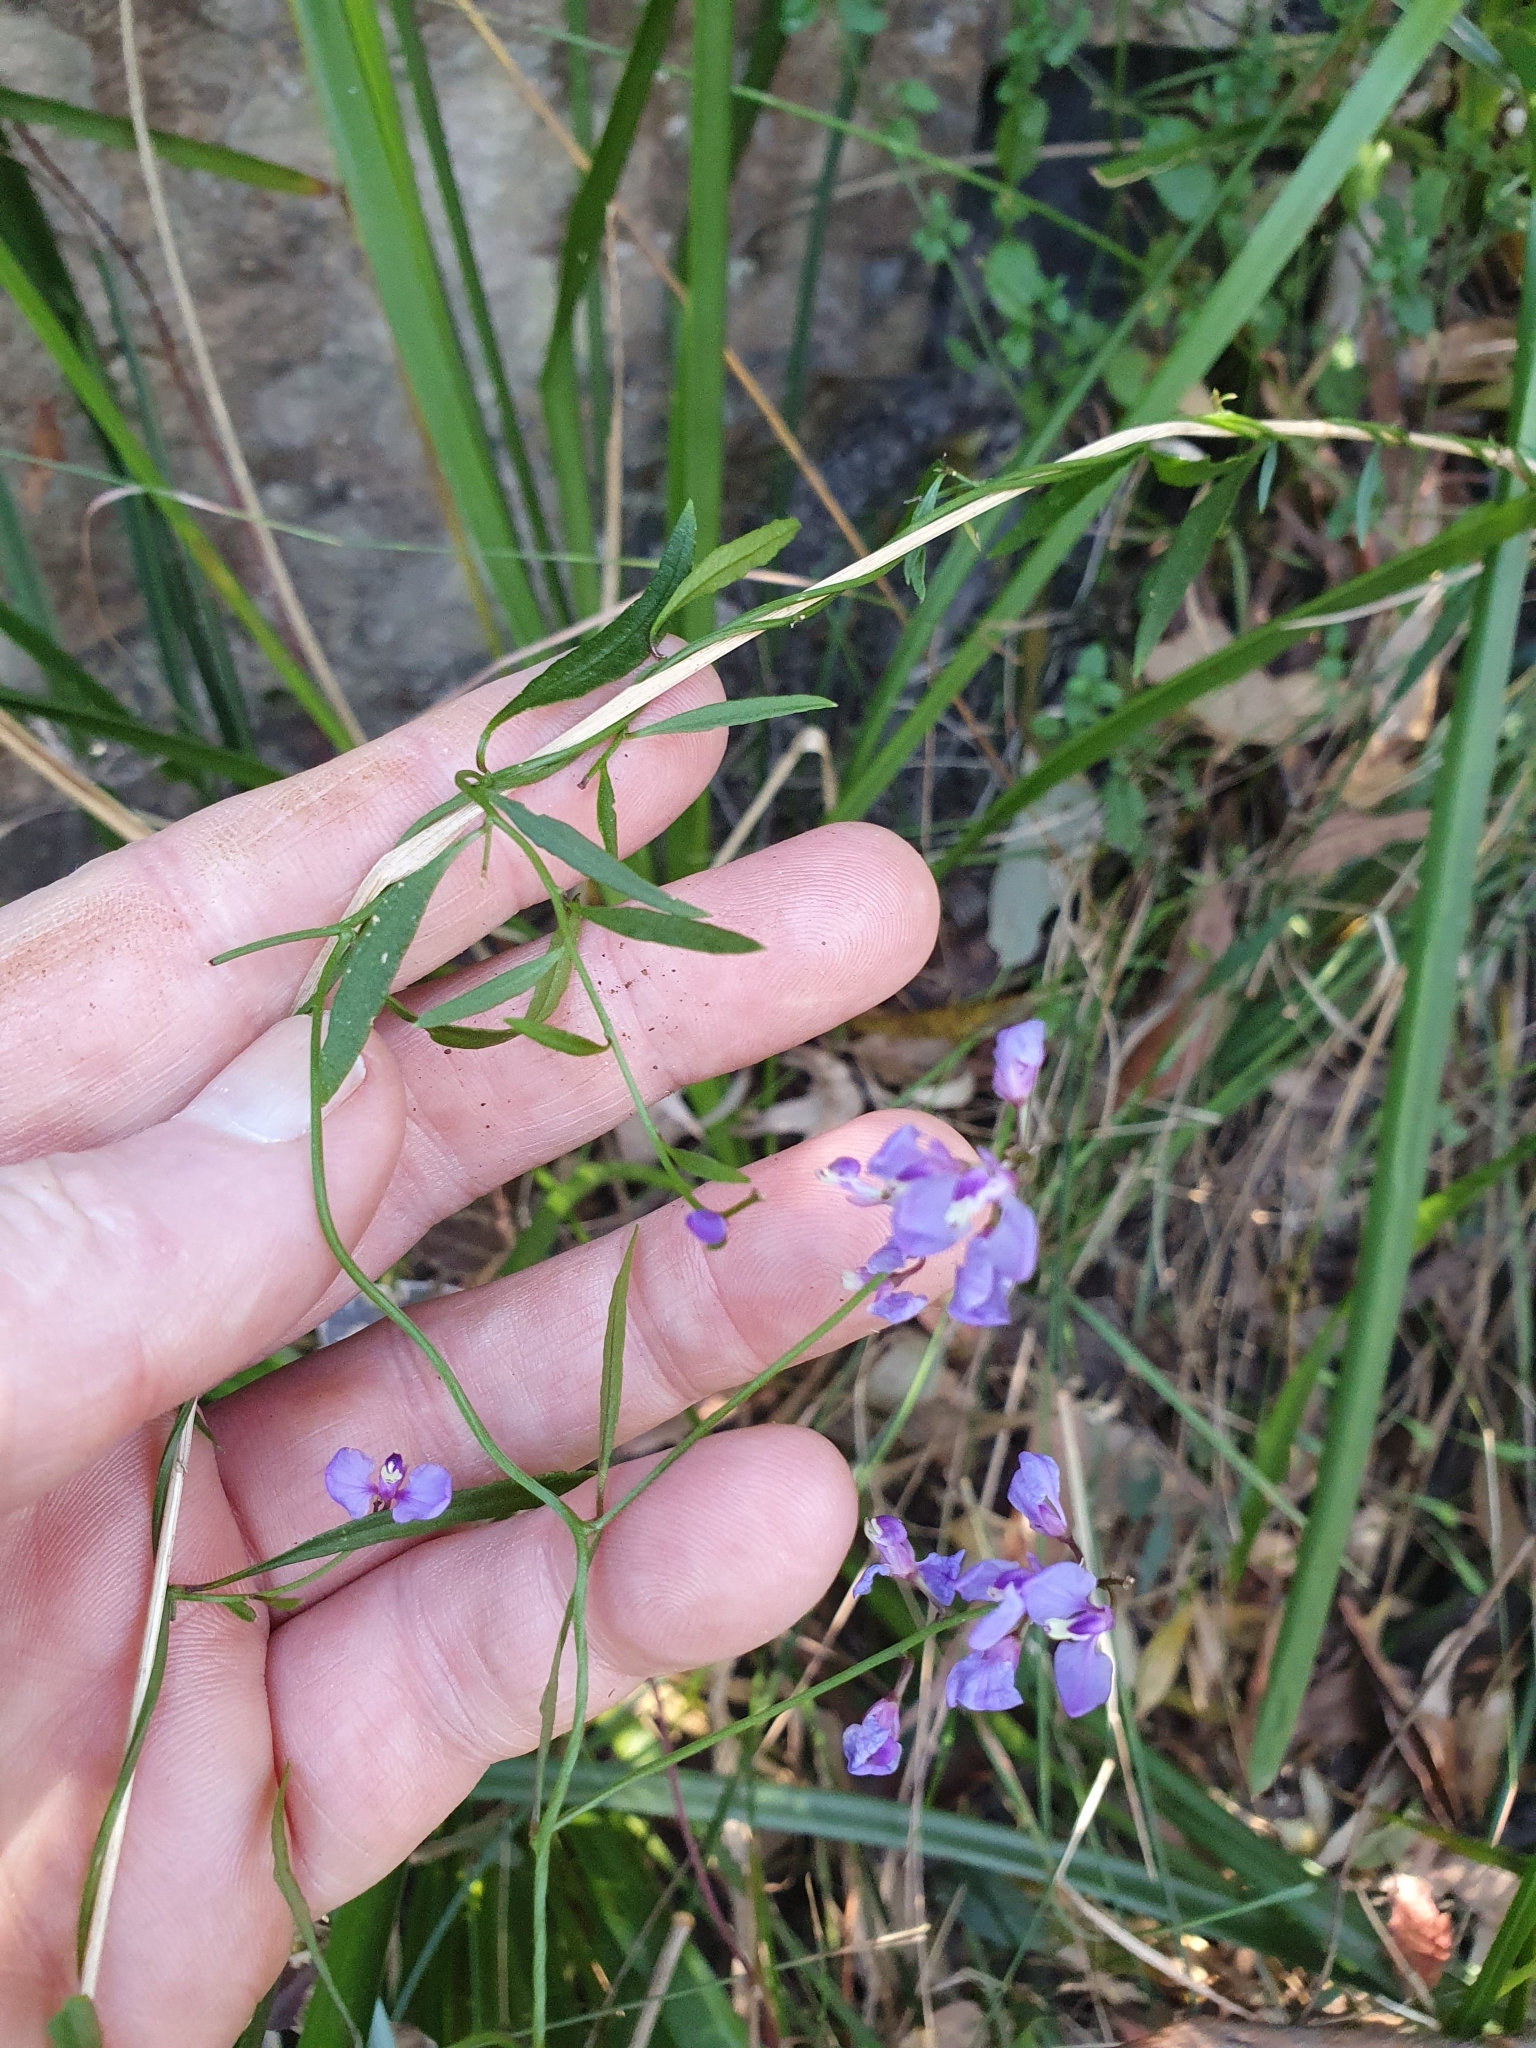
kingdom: Plantae
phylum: Tracheophyta
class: Magnoliopsida
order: Fabales
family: Fabaceae
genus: Glycine
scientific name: Glycine clandestina
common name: Twining glycine
